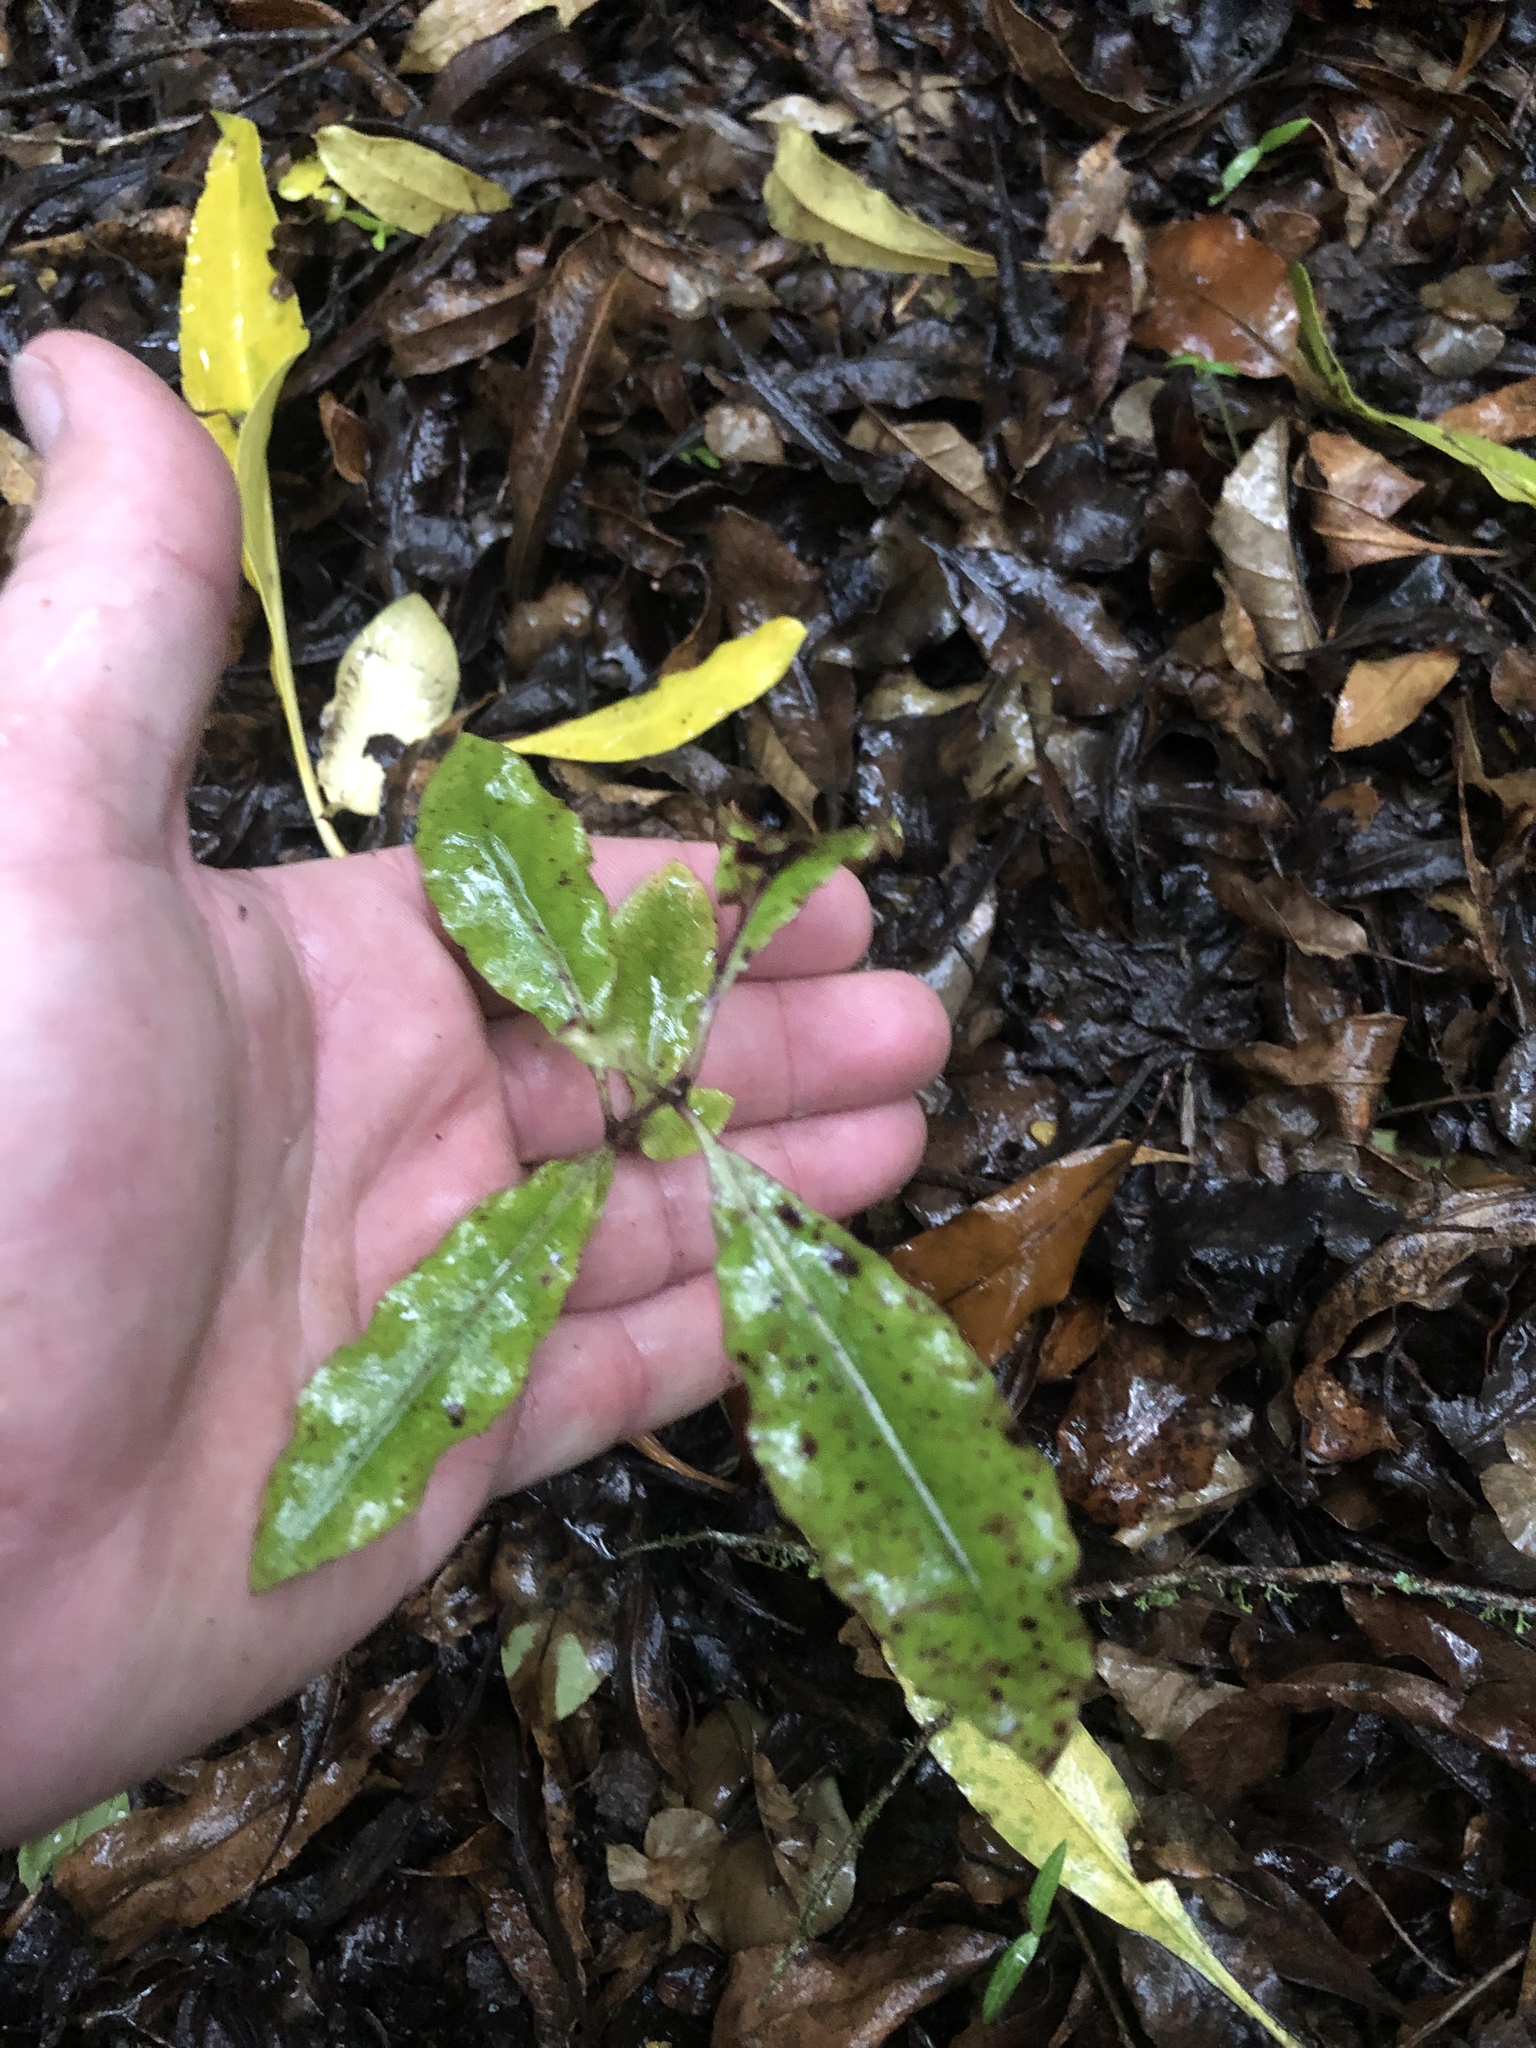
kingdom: Plantae
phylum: Tracheophyta
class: Magnoliopsida
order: Apiales
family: Pittosporaceae
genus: Pittosporum
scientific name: Pittosporum eugenioides
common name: Lemonwood
